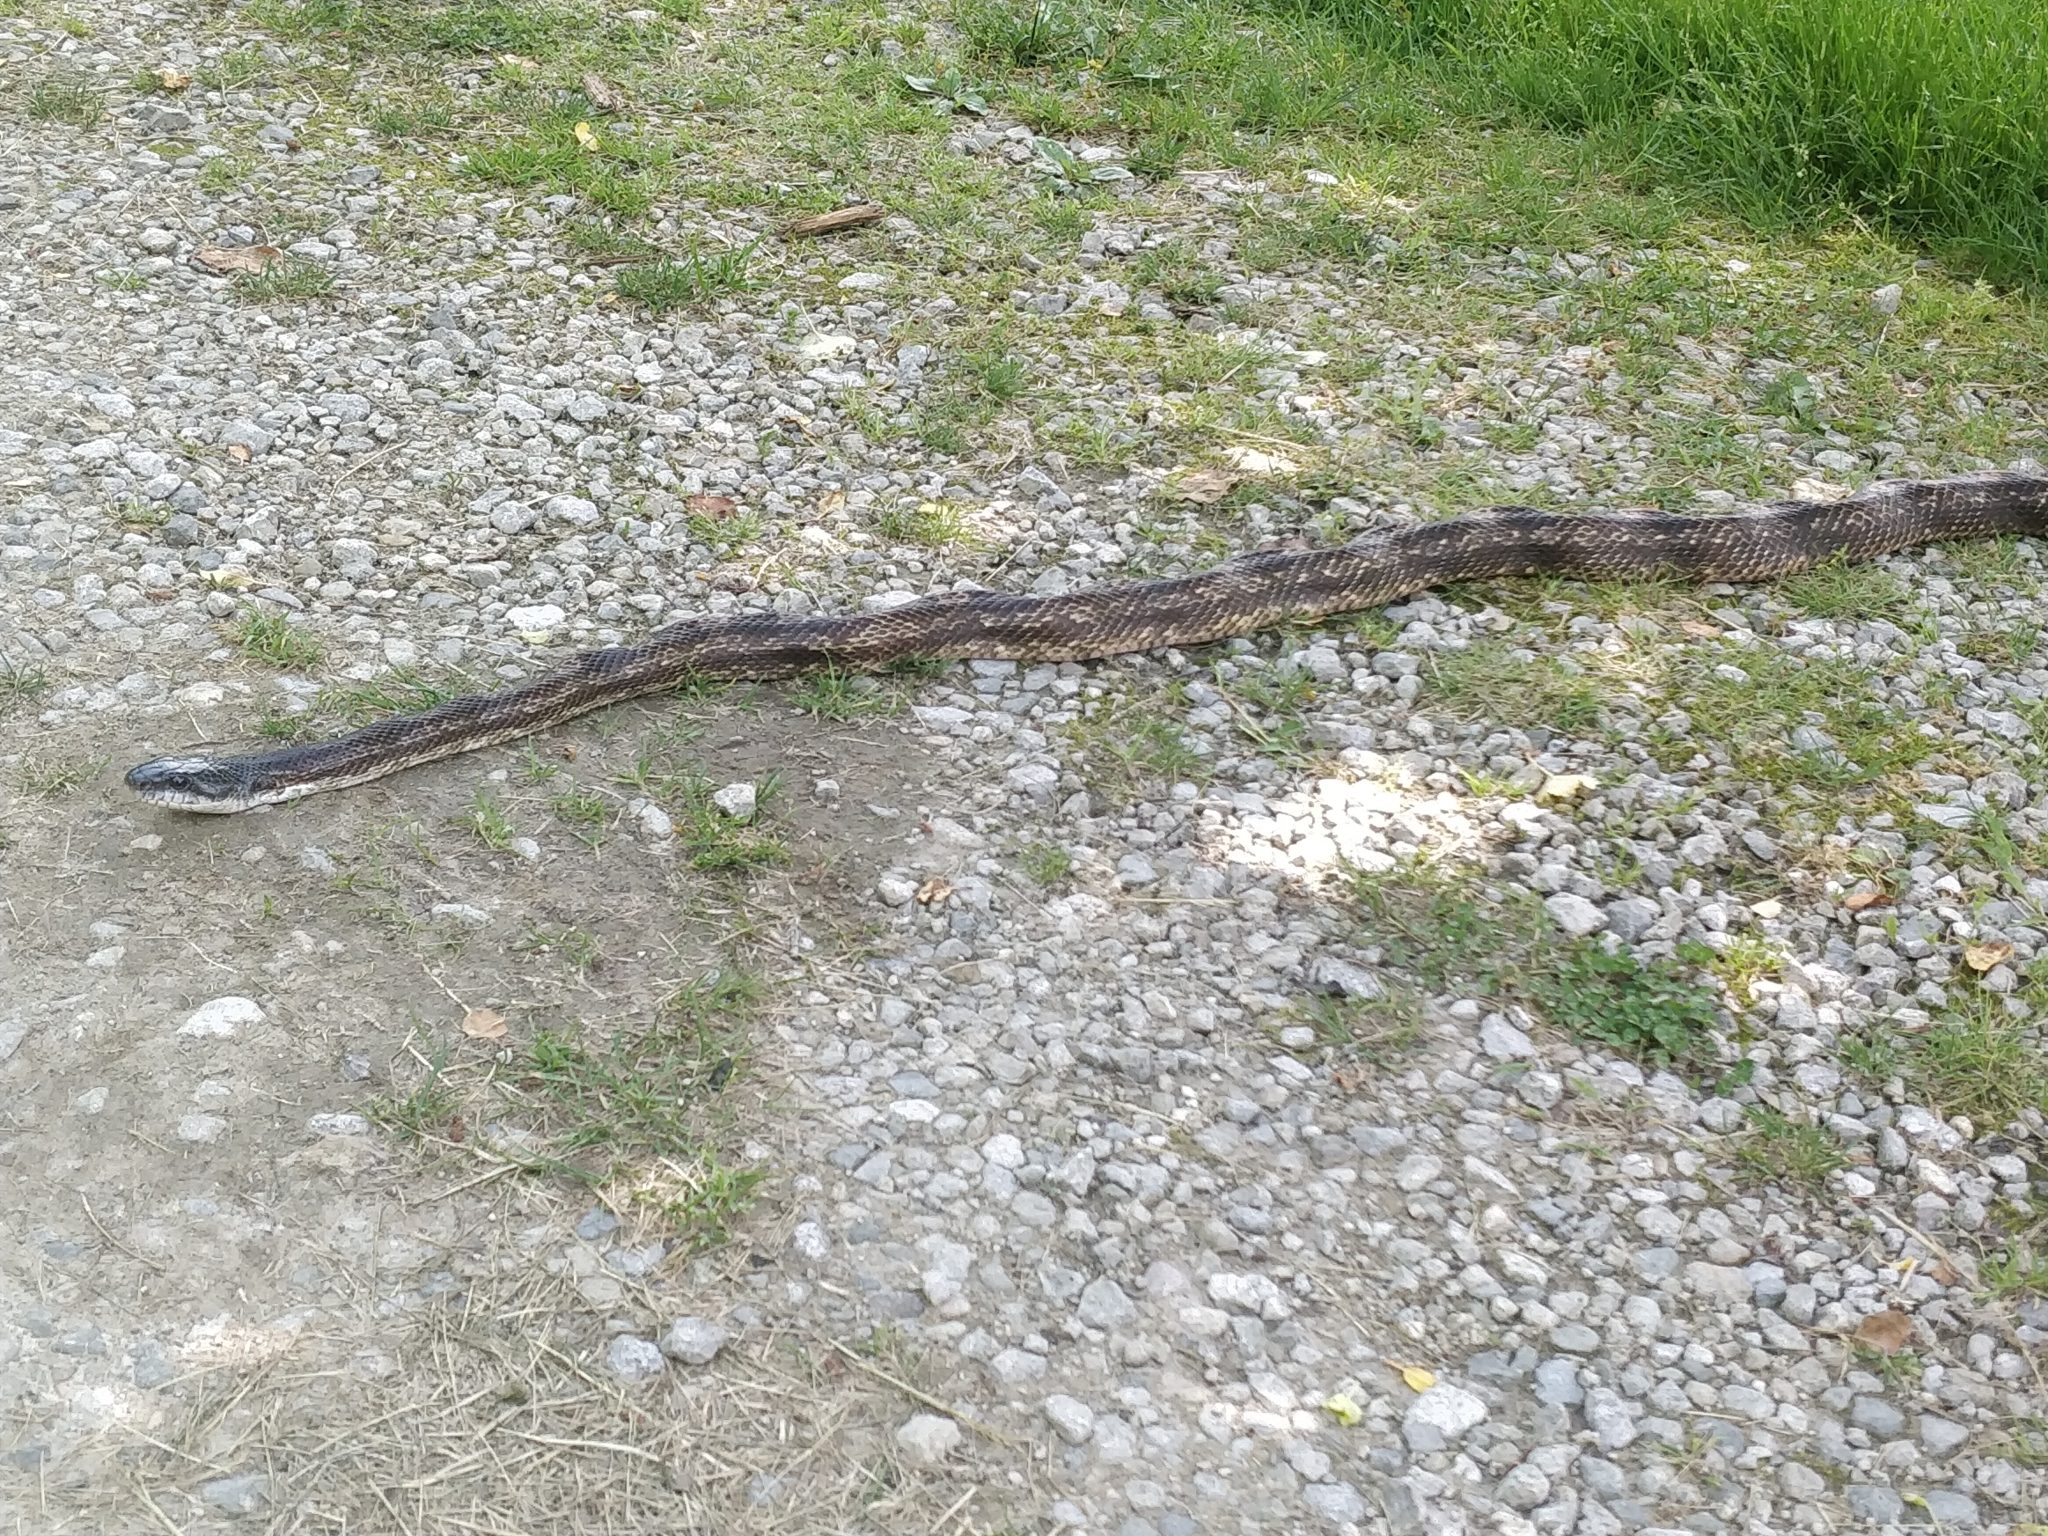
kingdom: Animalia
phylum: Chordata
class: Squamata
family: Colubridae
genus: Pantherophis
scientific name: Pantherophis spiloides
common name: Gray rat snake
